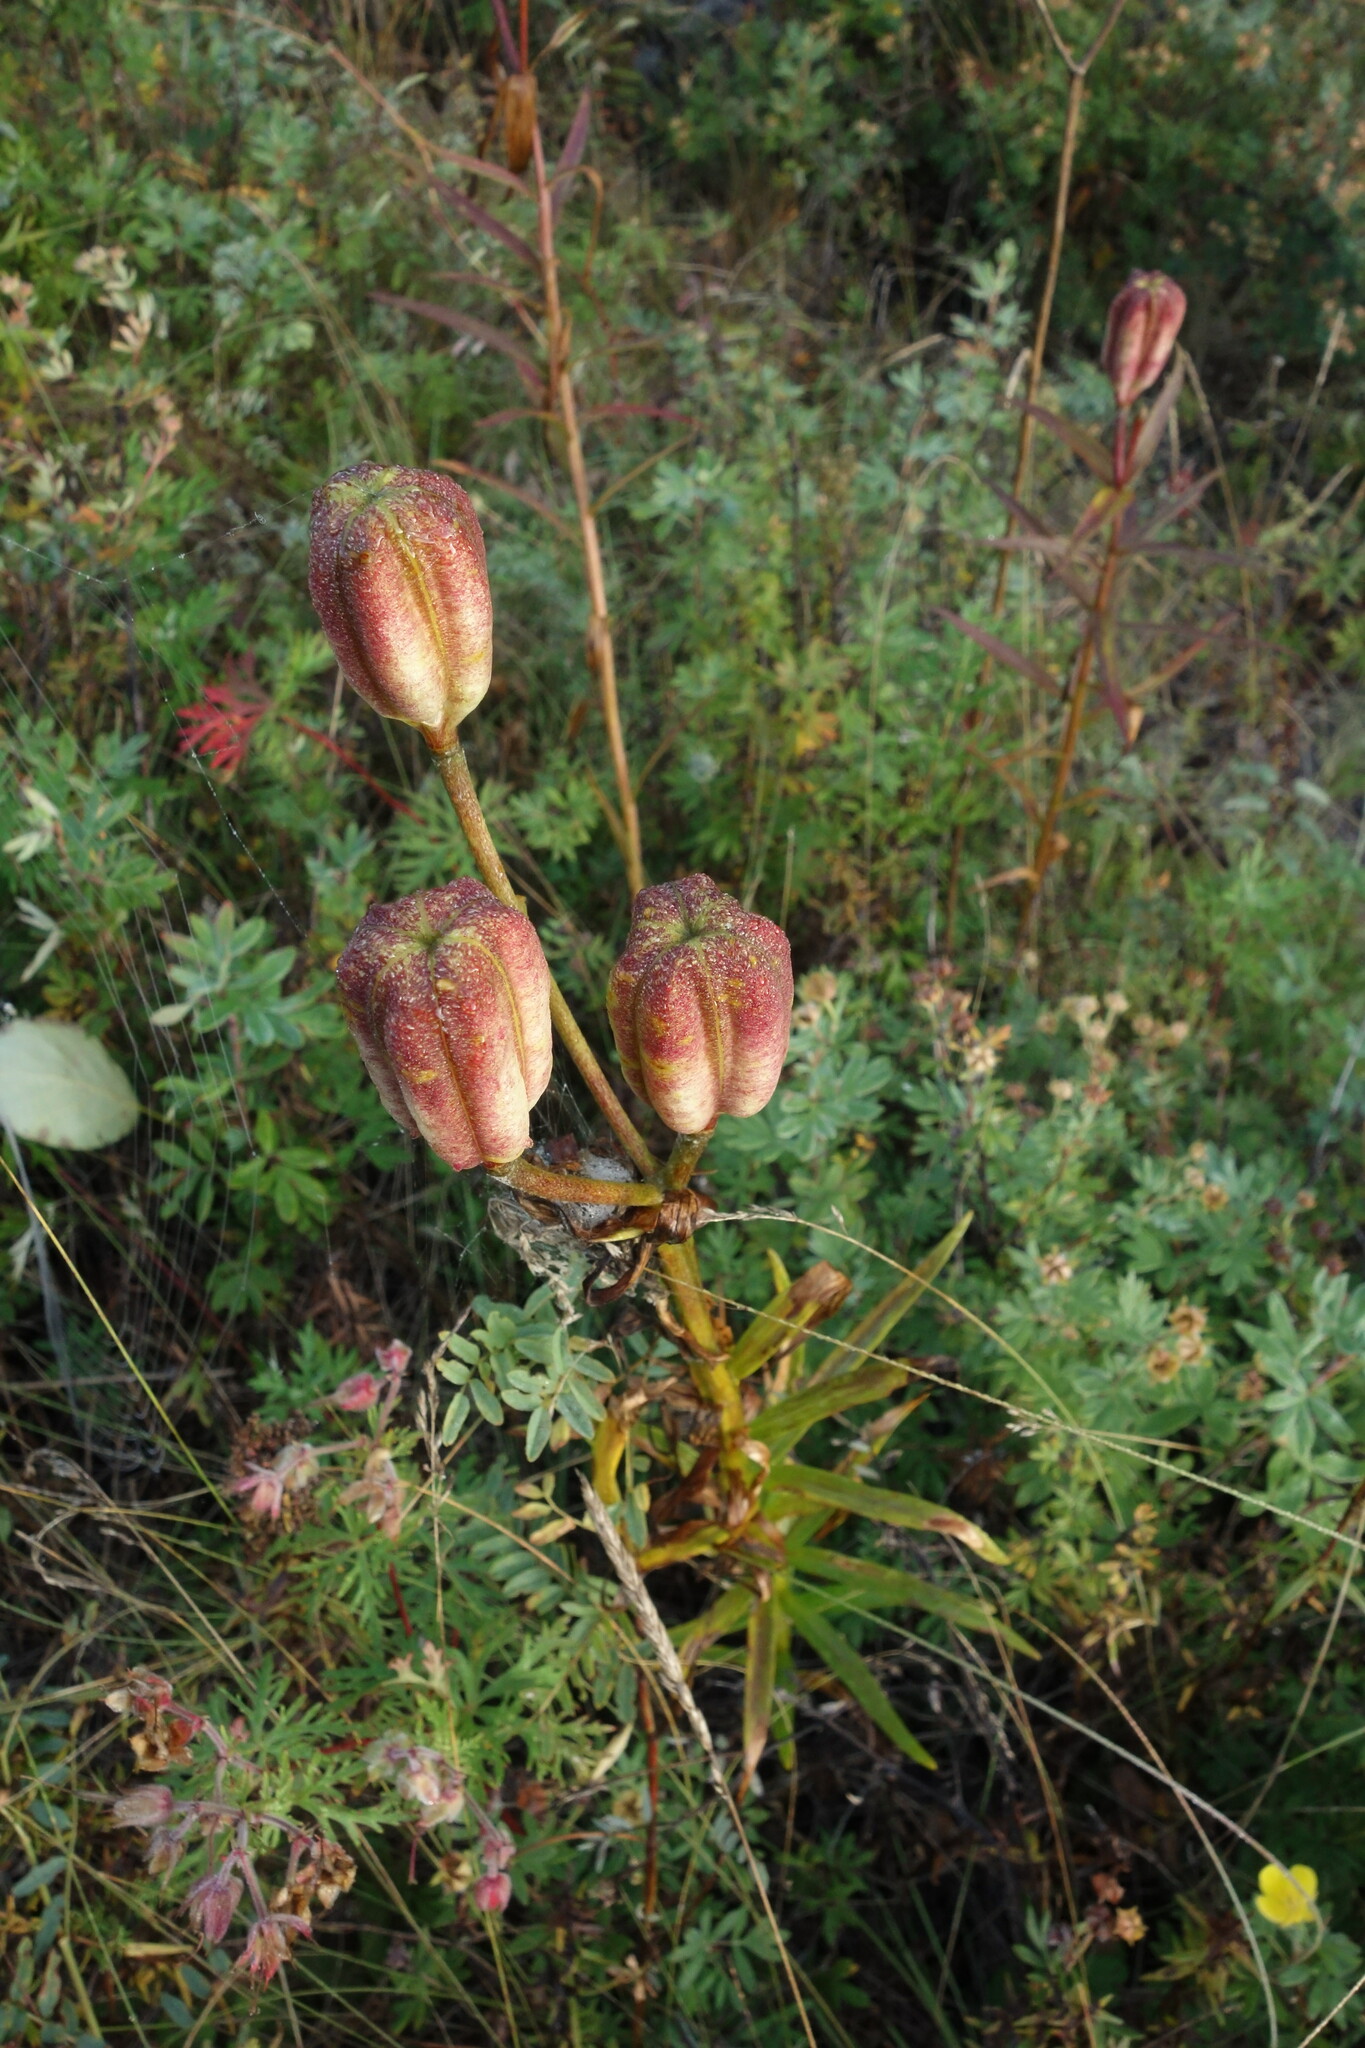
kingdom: Plantae
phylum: Tracheophyta
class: Liliopsida
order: Liliales
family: Liliaceae
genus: Lilium
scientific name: Lilium pensylvanicum
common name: Candlestick lily
